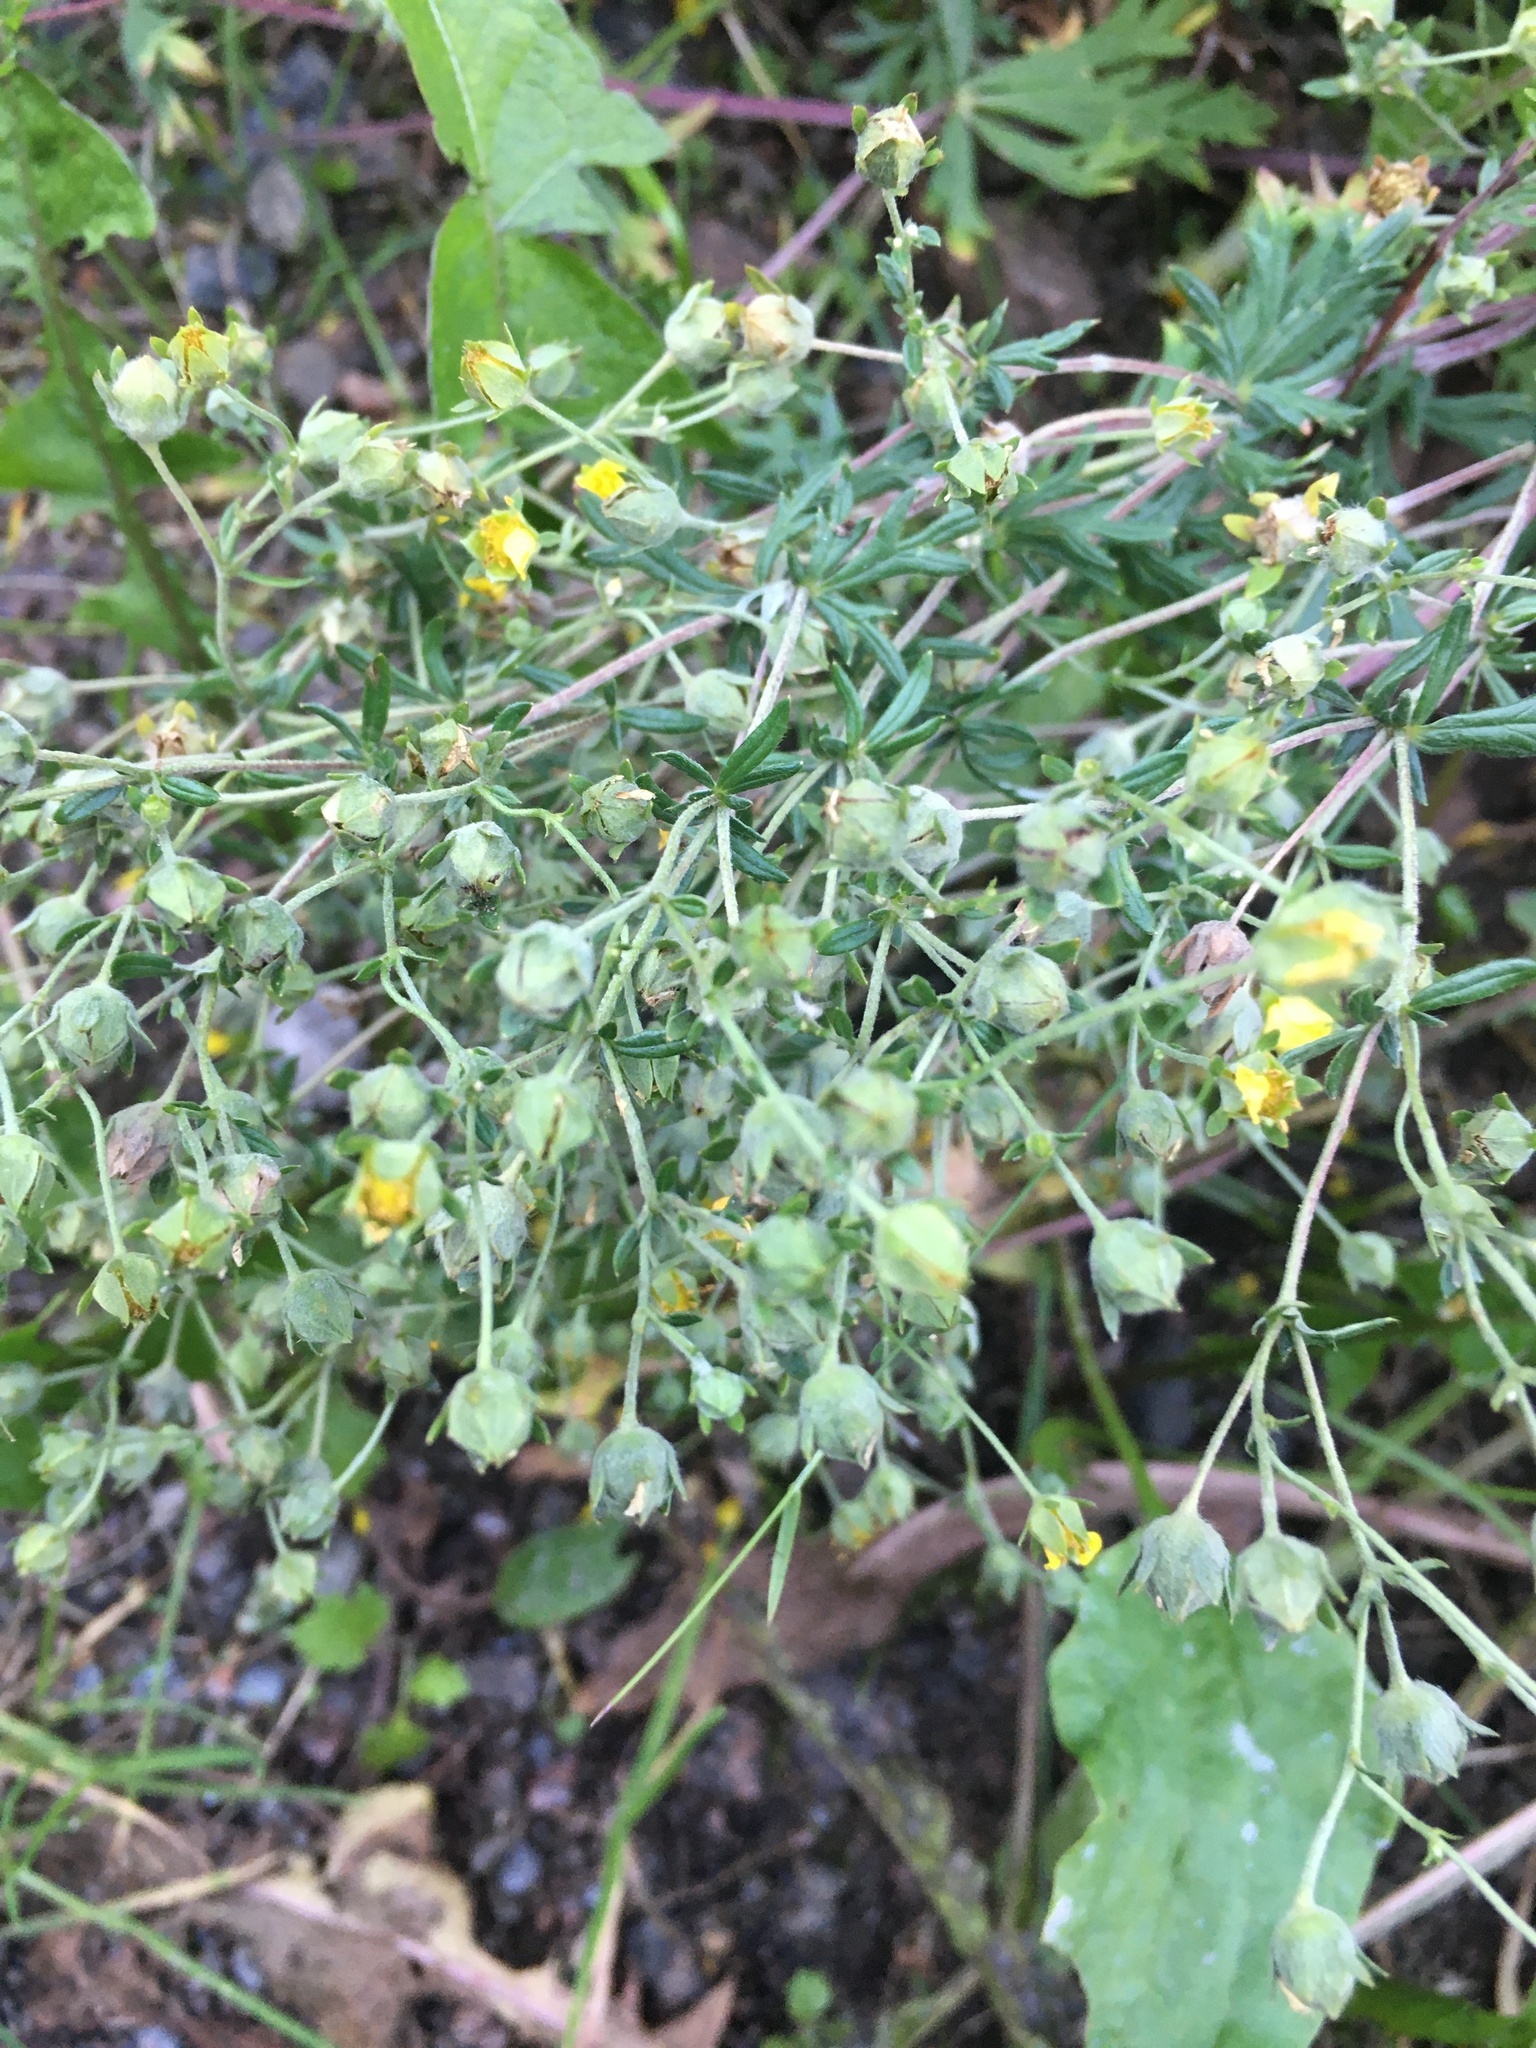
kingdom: Plantae
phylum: Tracheophyta
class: Magnoliopsida
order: Rosales
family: Rosaceae
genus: Potentilla
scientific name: Potentilla argentea
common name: Hoary cinquefoil
